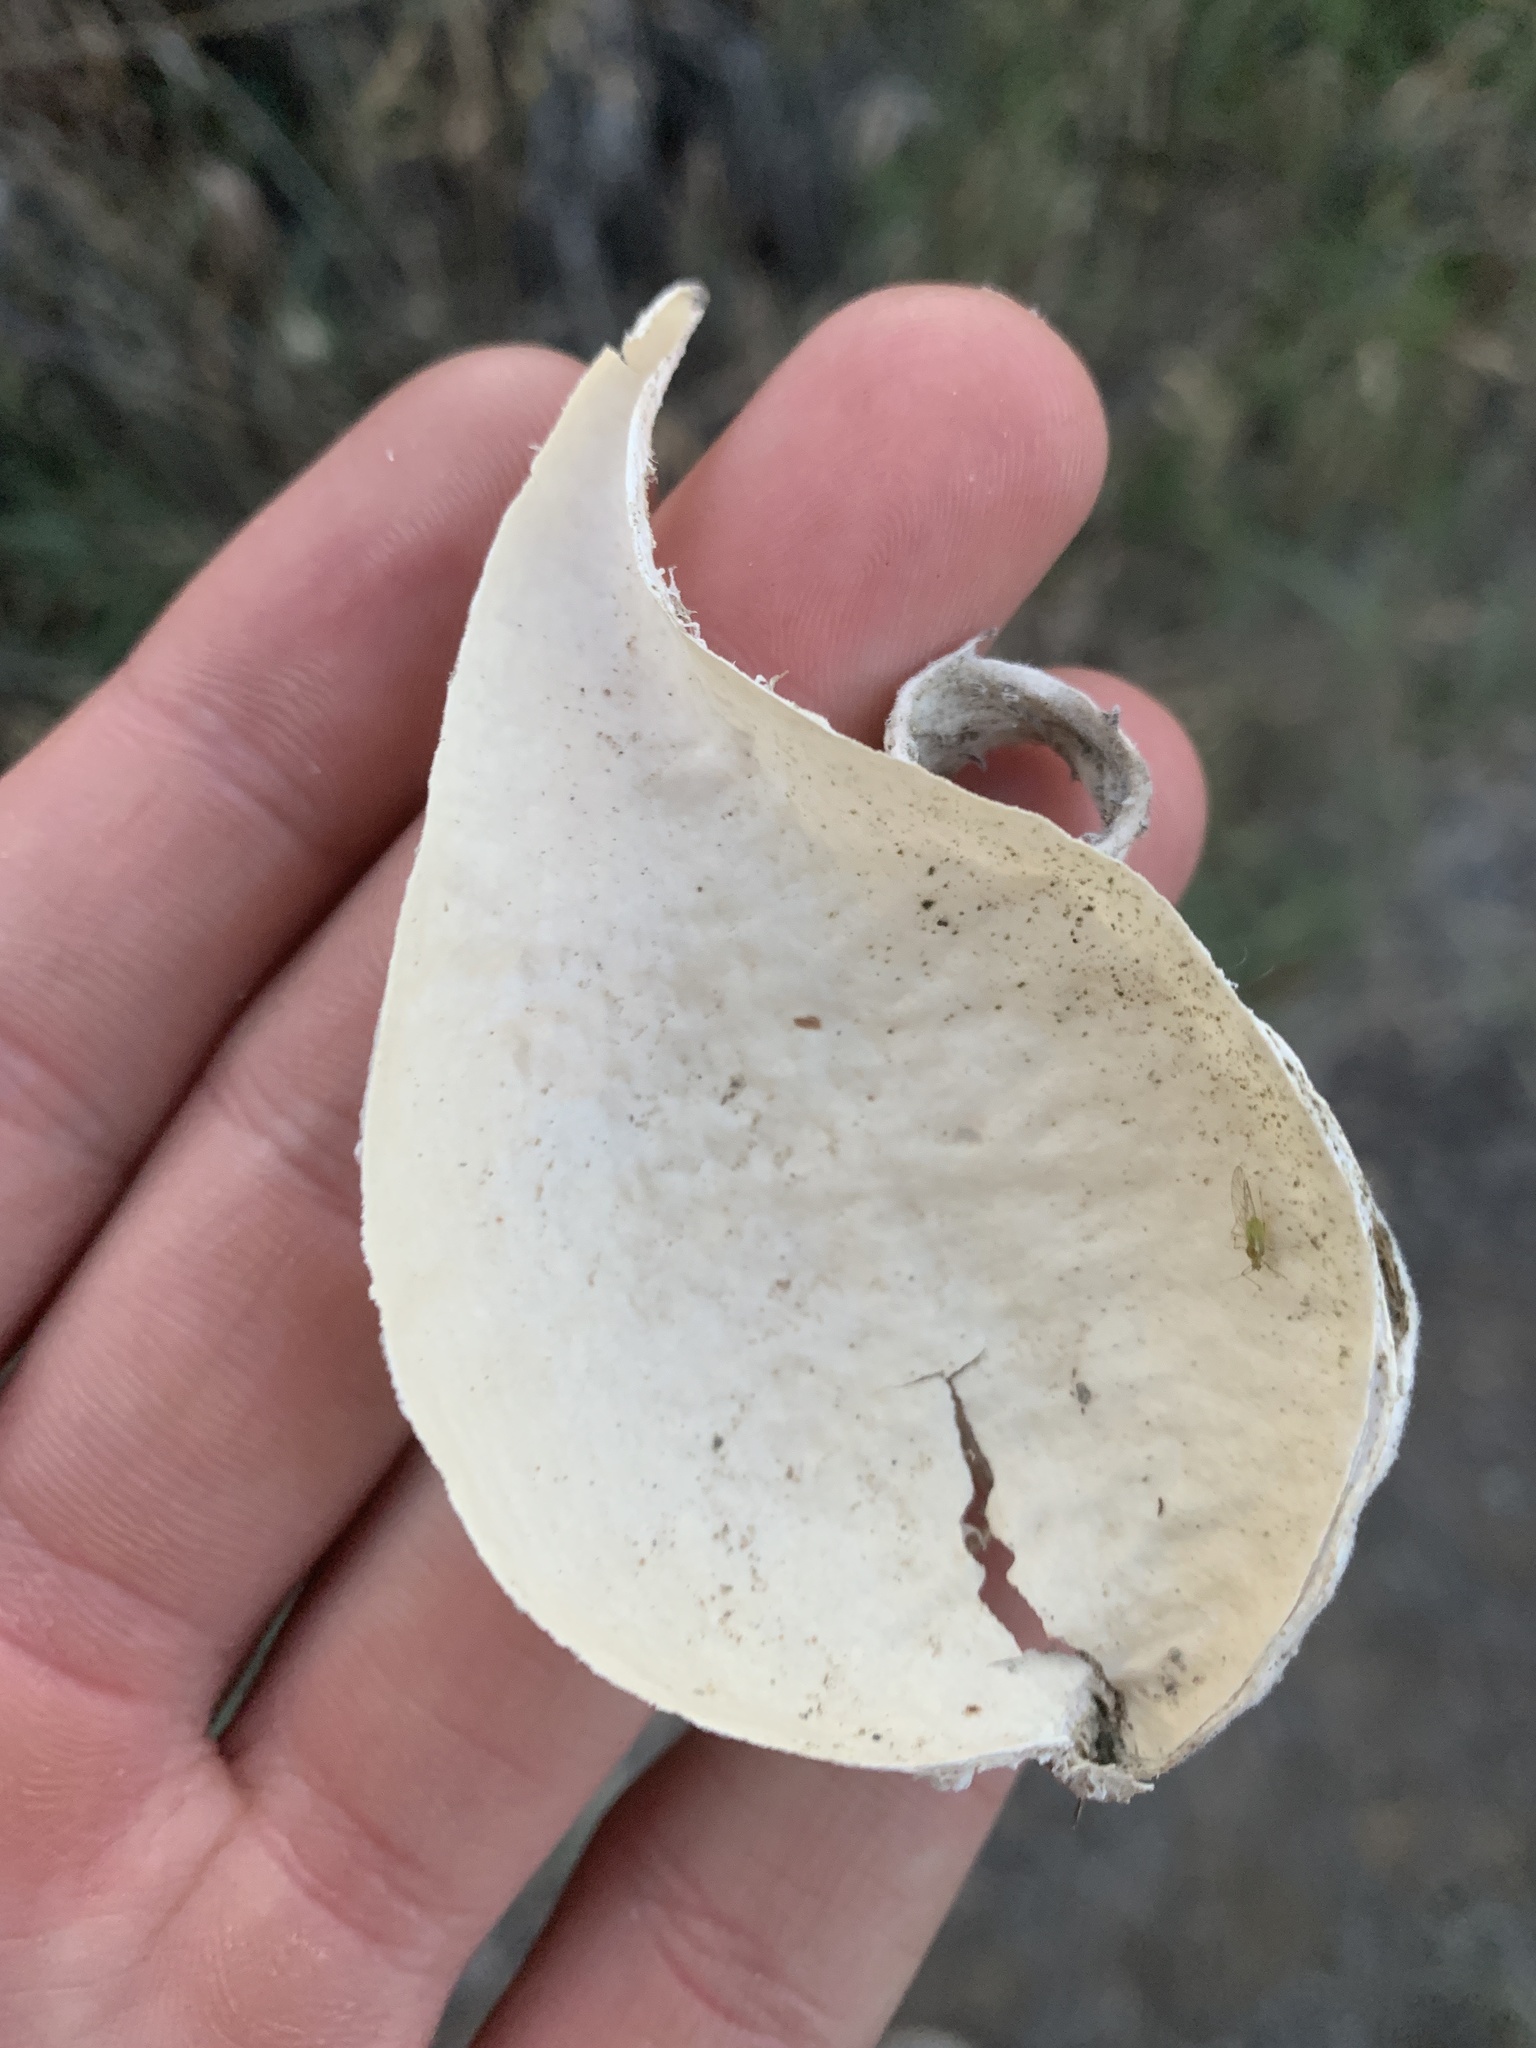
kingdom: Plantae
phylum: Tracheophyta
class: Magnoliopsida
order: Gentianales
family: Apocynaceae
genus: Asclepias
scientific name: Asclepias speciosa
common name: Showy milkweed
